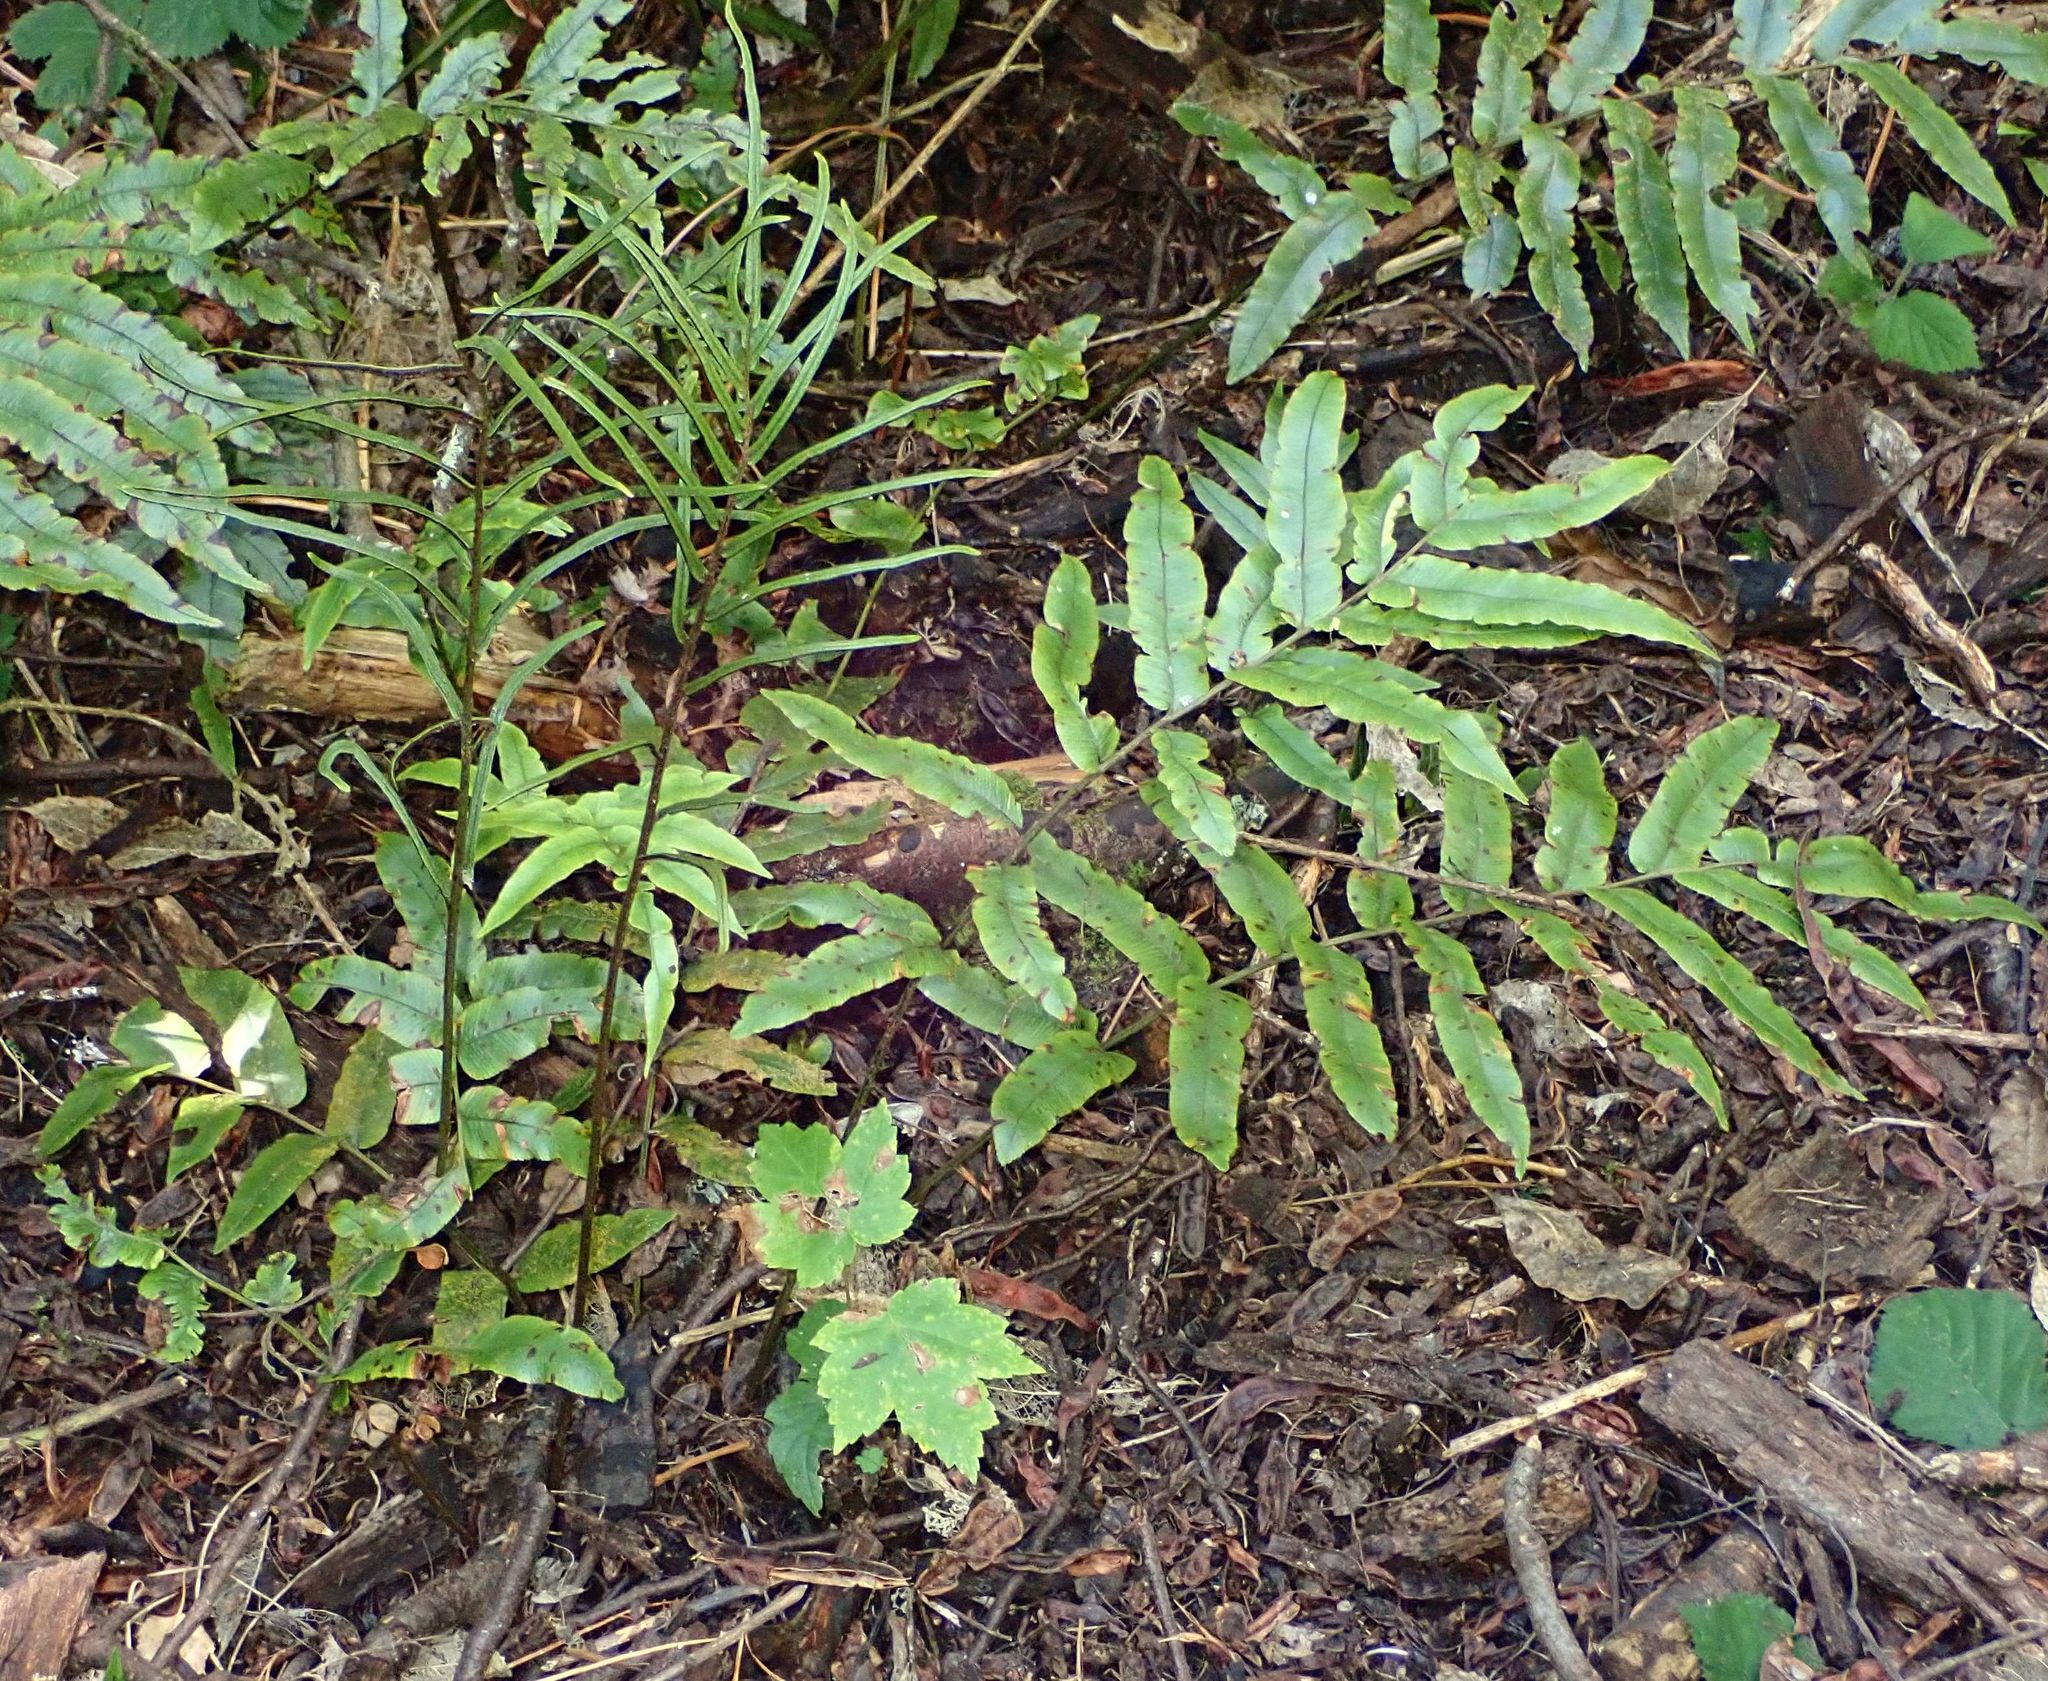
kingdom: Plantae
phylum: Tracheophyta
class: Polypodiopsida
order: Polypodiales
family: Blechnaceae
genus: Parablechnum
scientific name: Parablechnum procerum
